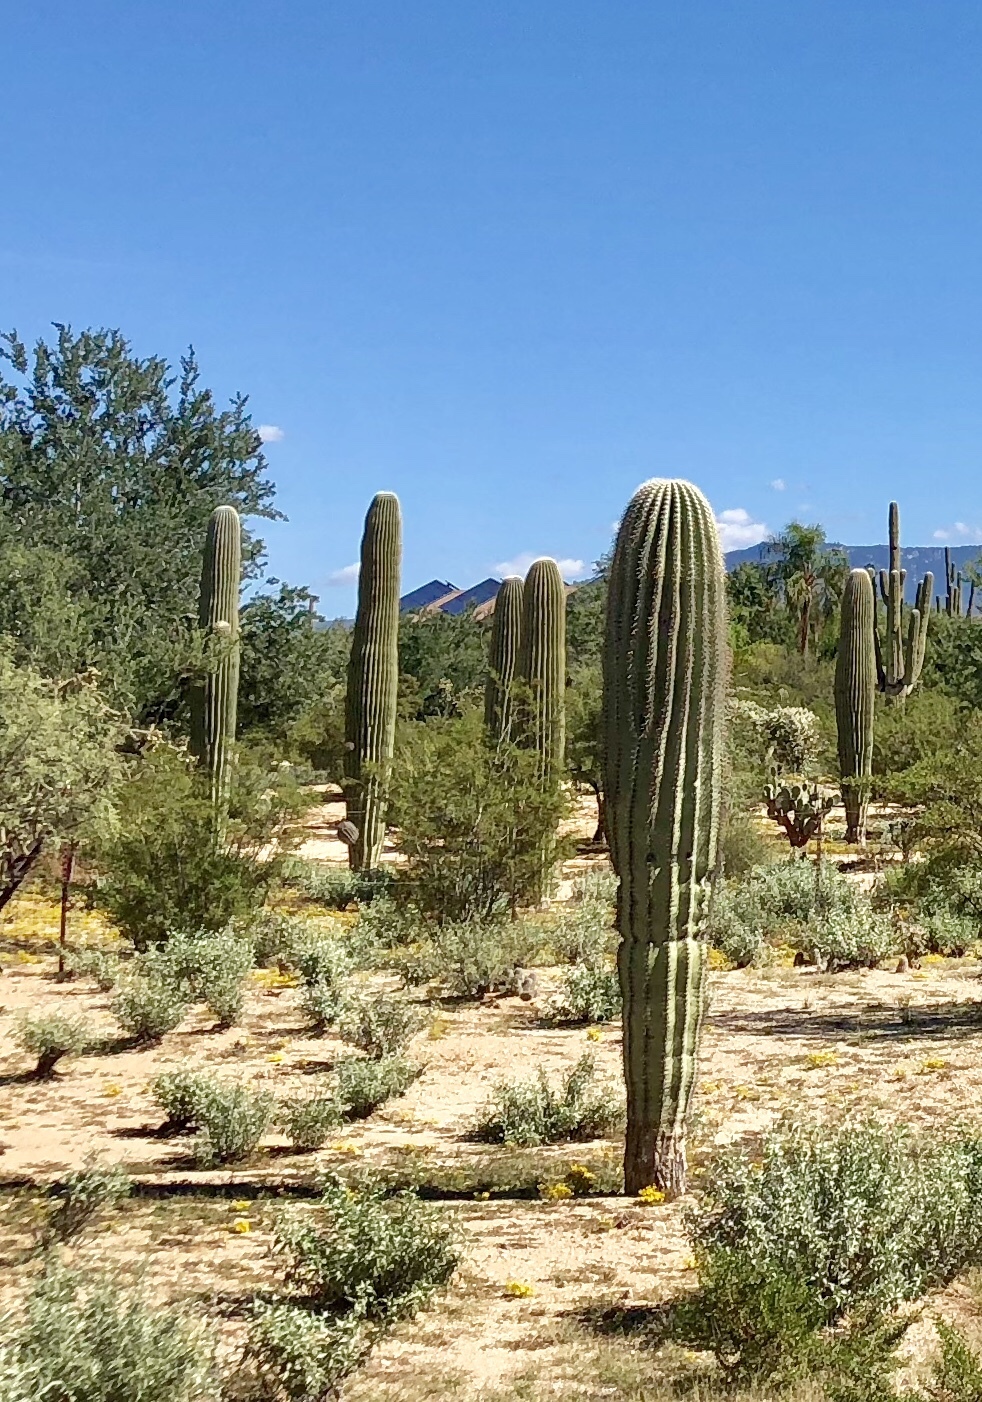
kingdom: Plantae
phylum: Tracheophyta
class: Magnoliopsida
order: Caryophyllales
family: Cactaceae
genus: Carnegiea
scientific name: Carnegiea gigantea
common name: Saguaro
